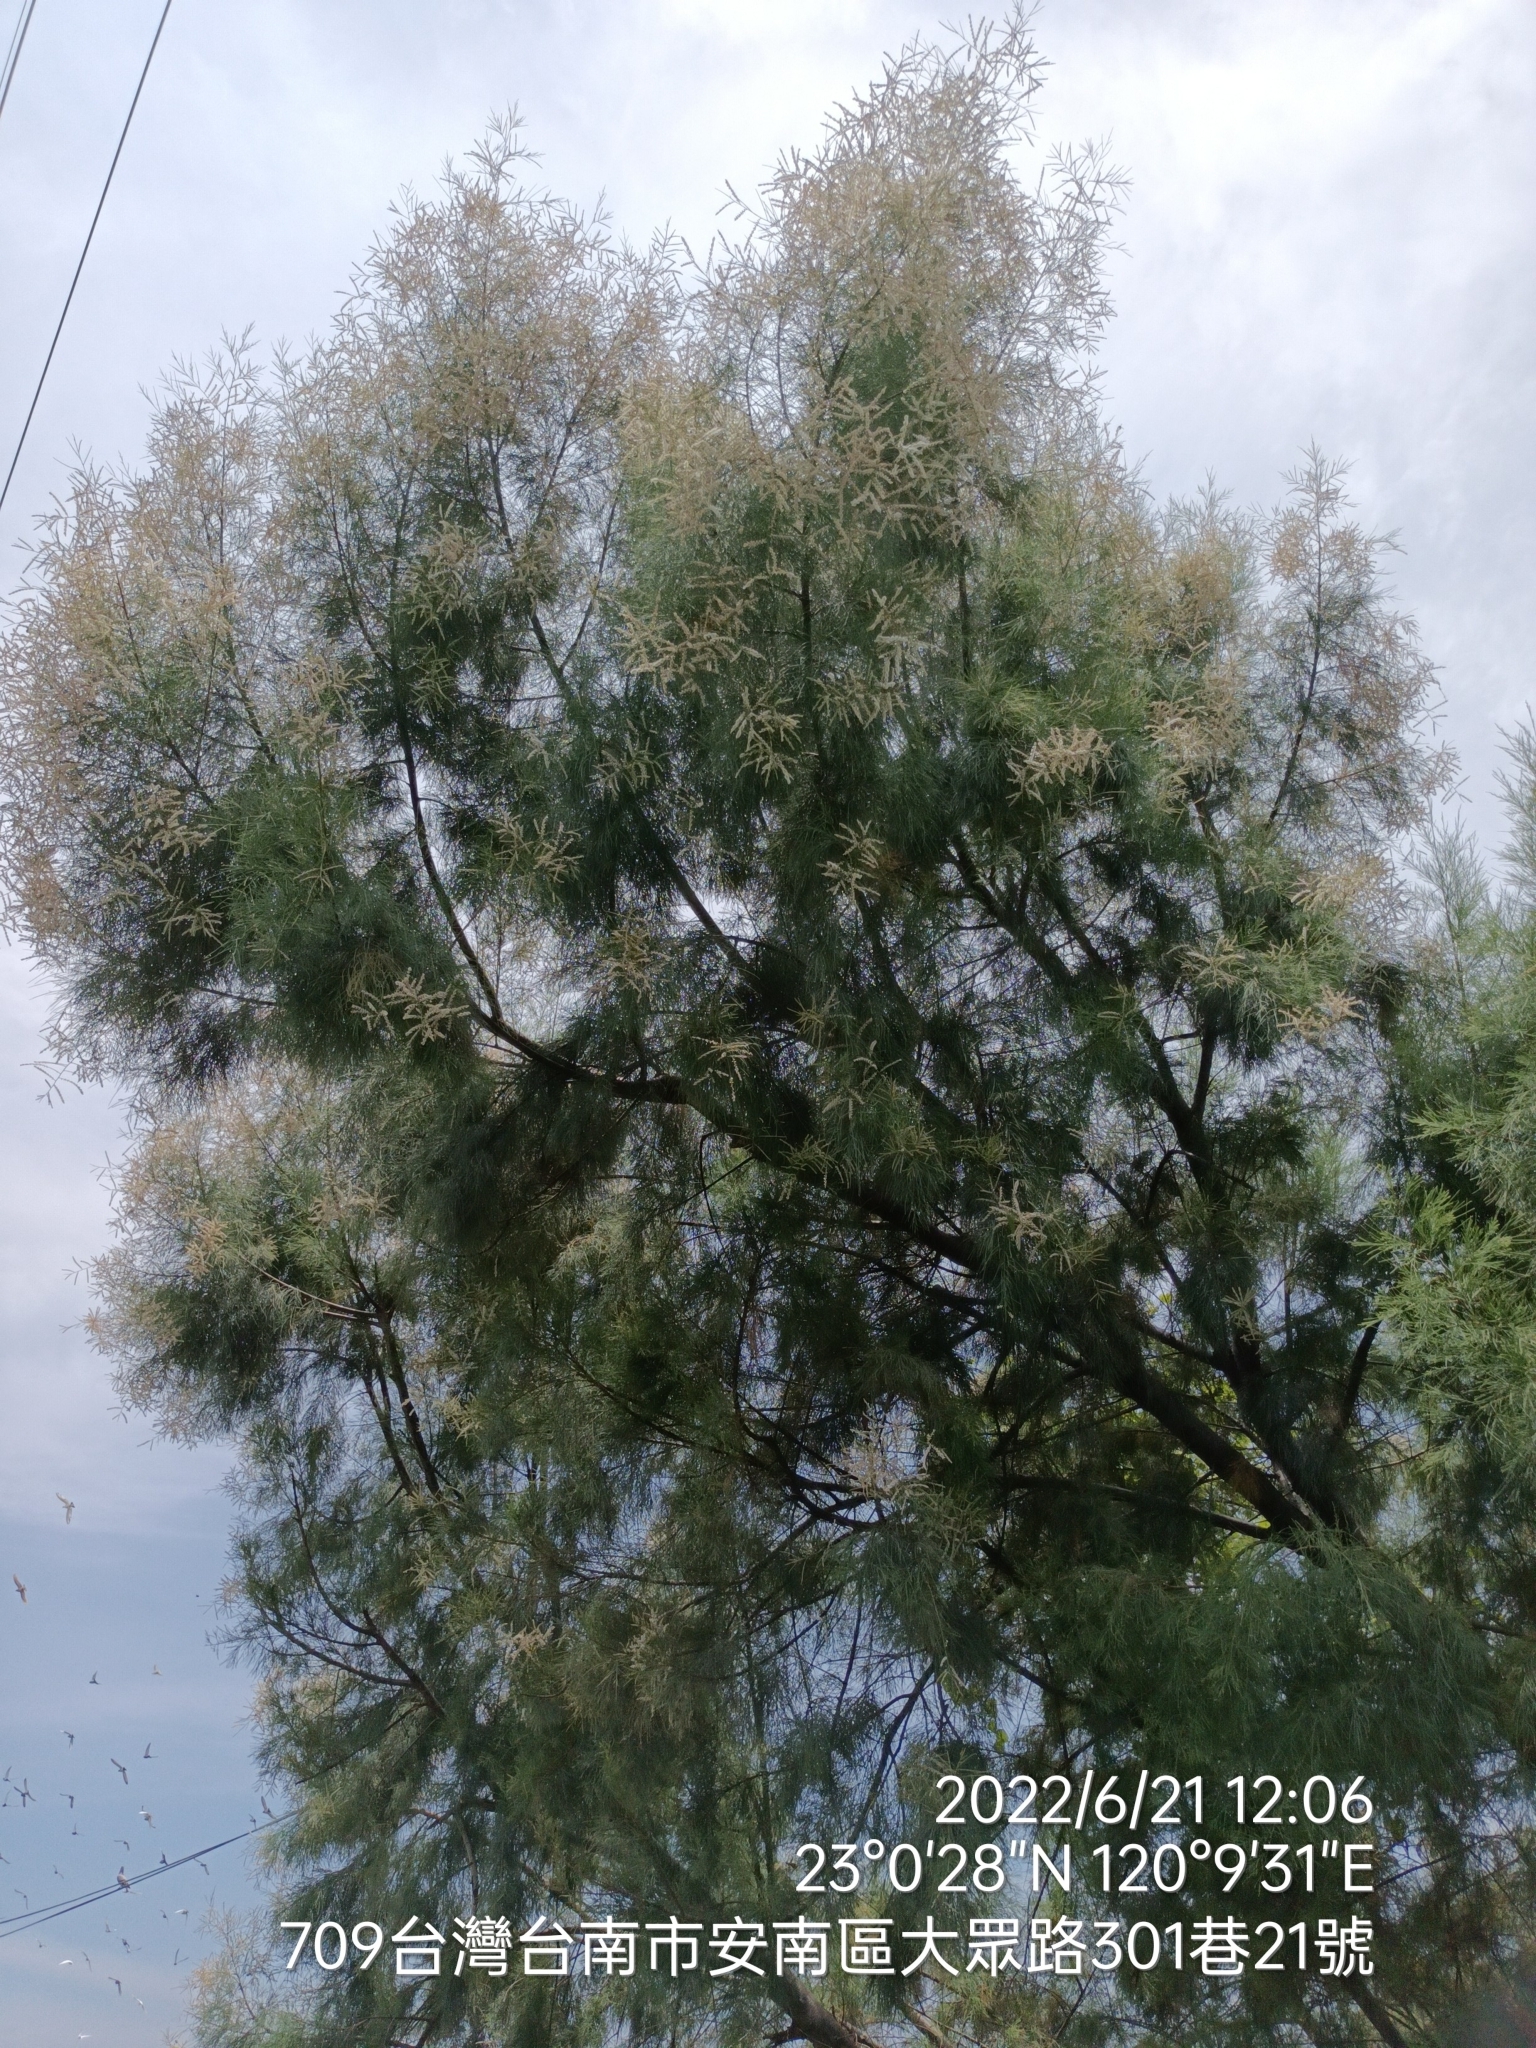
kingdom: Plantae
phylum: Tracheophyta
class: Magnoliopsida
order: Caryophyllales
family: Tamaricaceae
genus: Tamarix
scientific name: Tamarix aphylla
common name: Athel tamarisk
